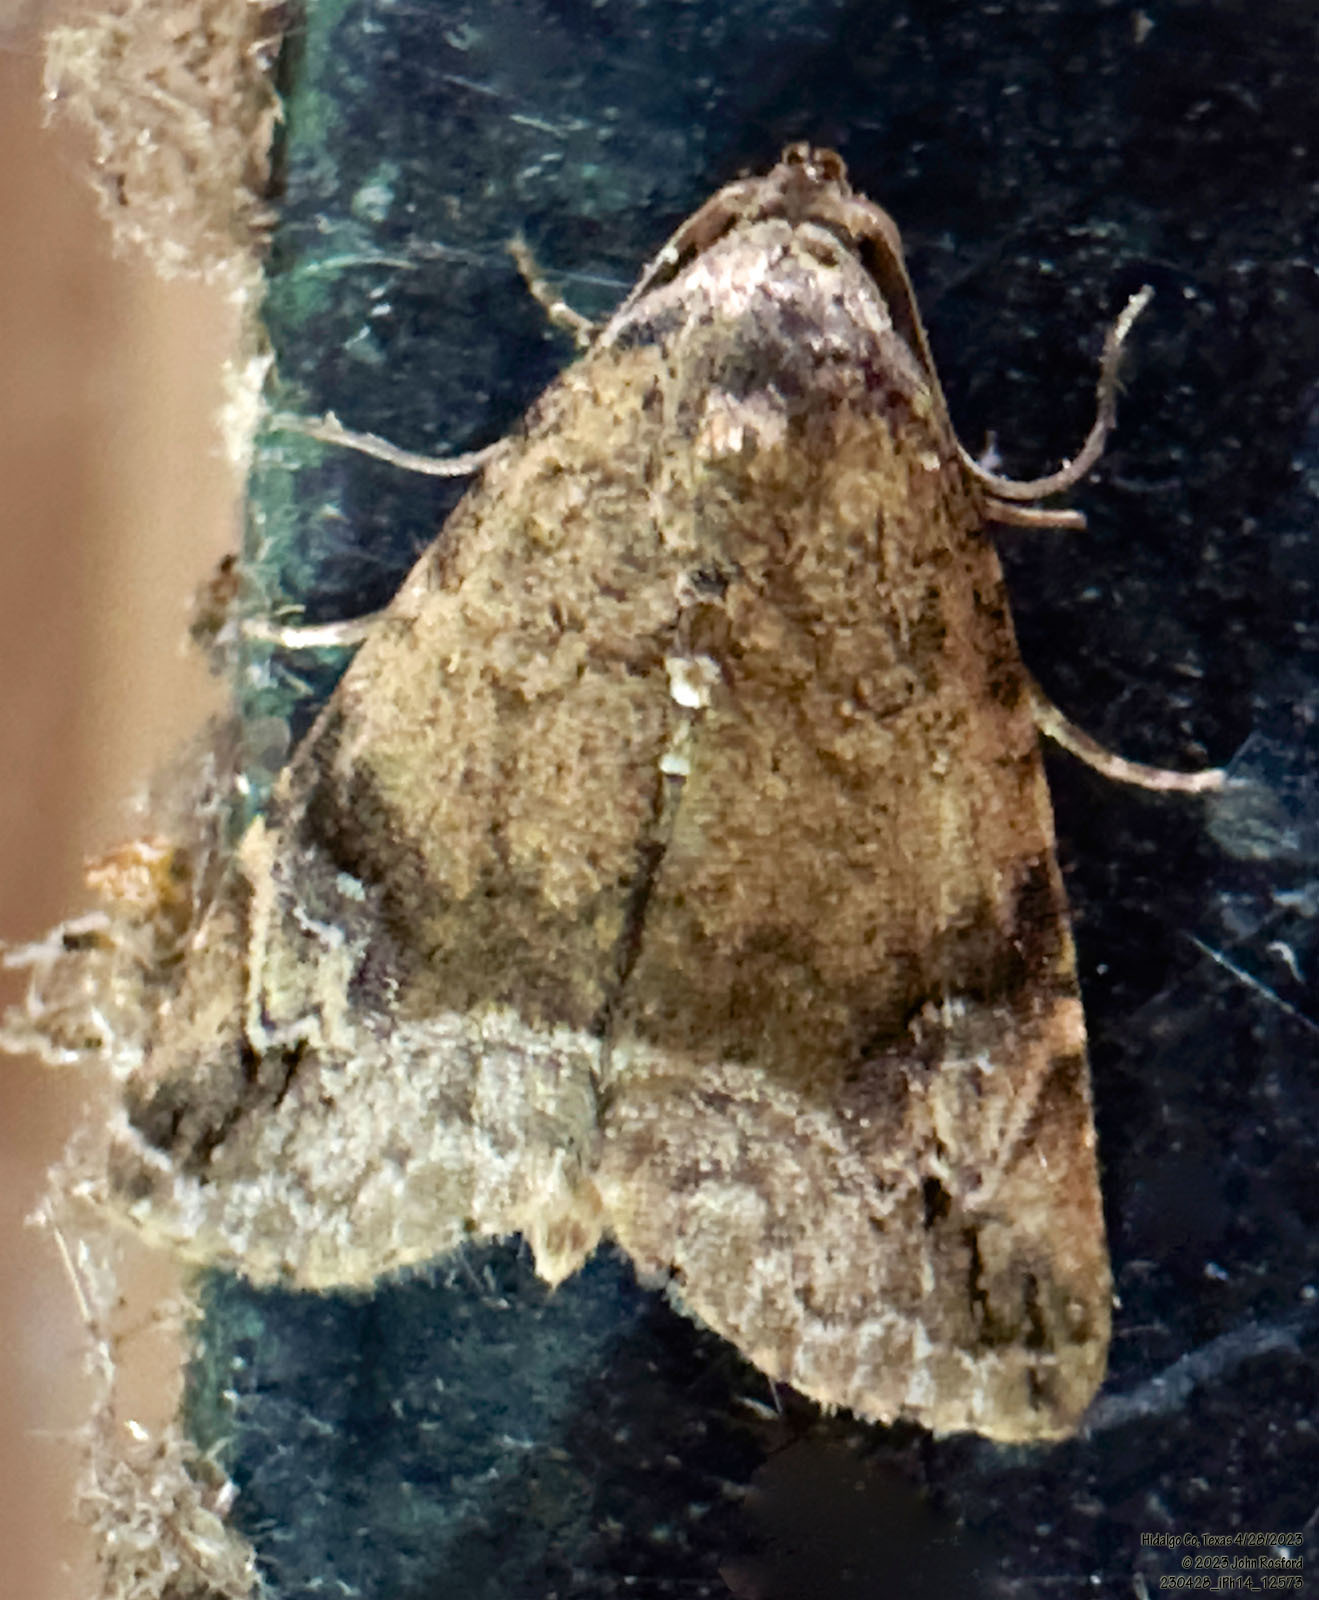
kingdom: Animalia
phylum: Arthropoda
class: Insecta
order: Lepidoptera
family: Noctuidae
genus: Ozarba
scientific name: Ozarba aeria
